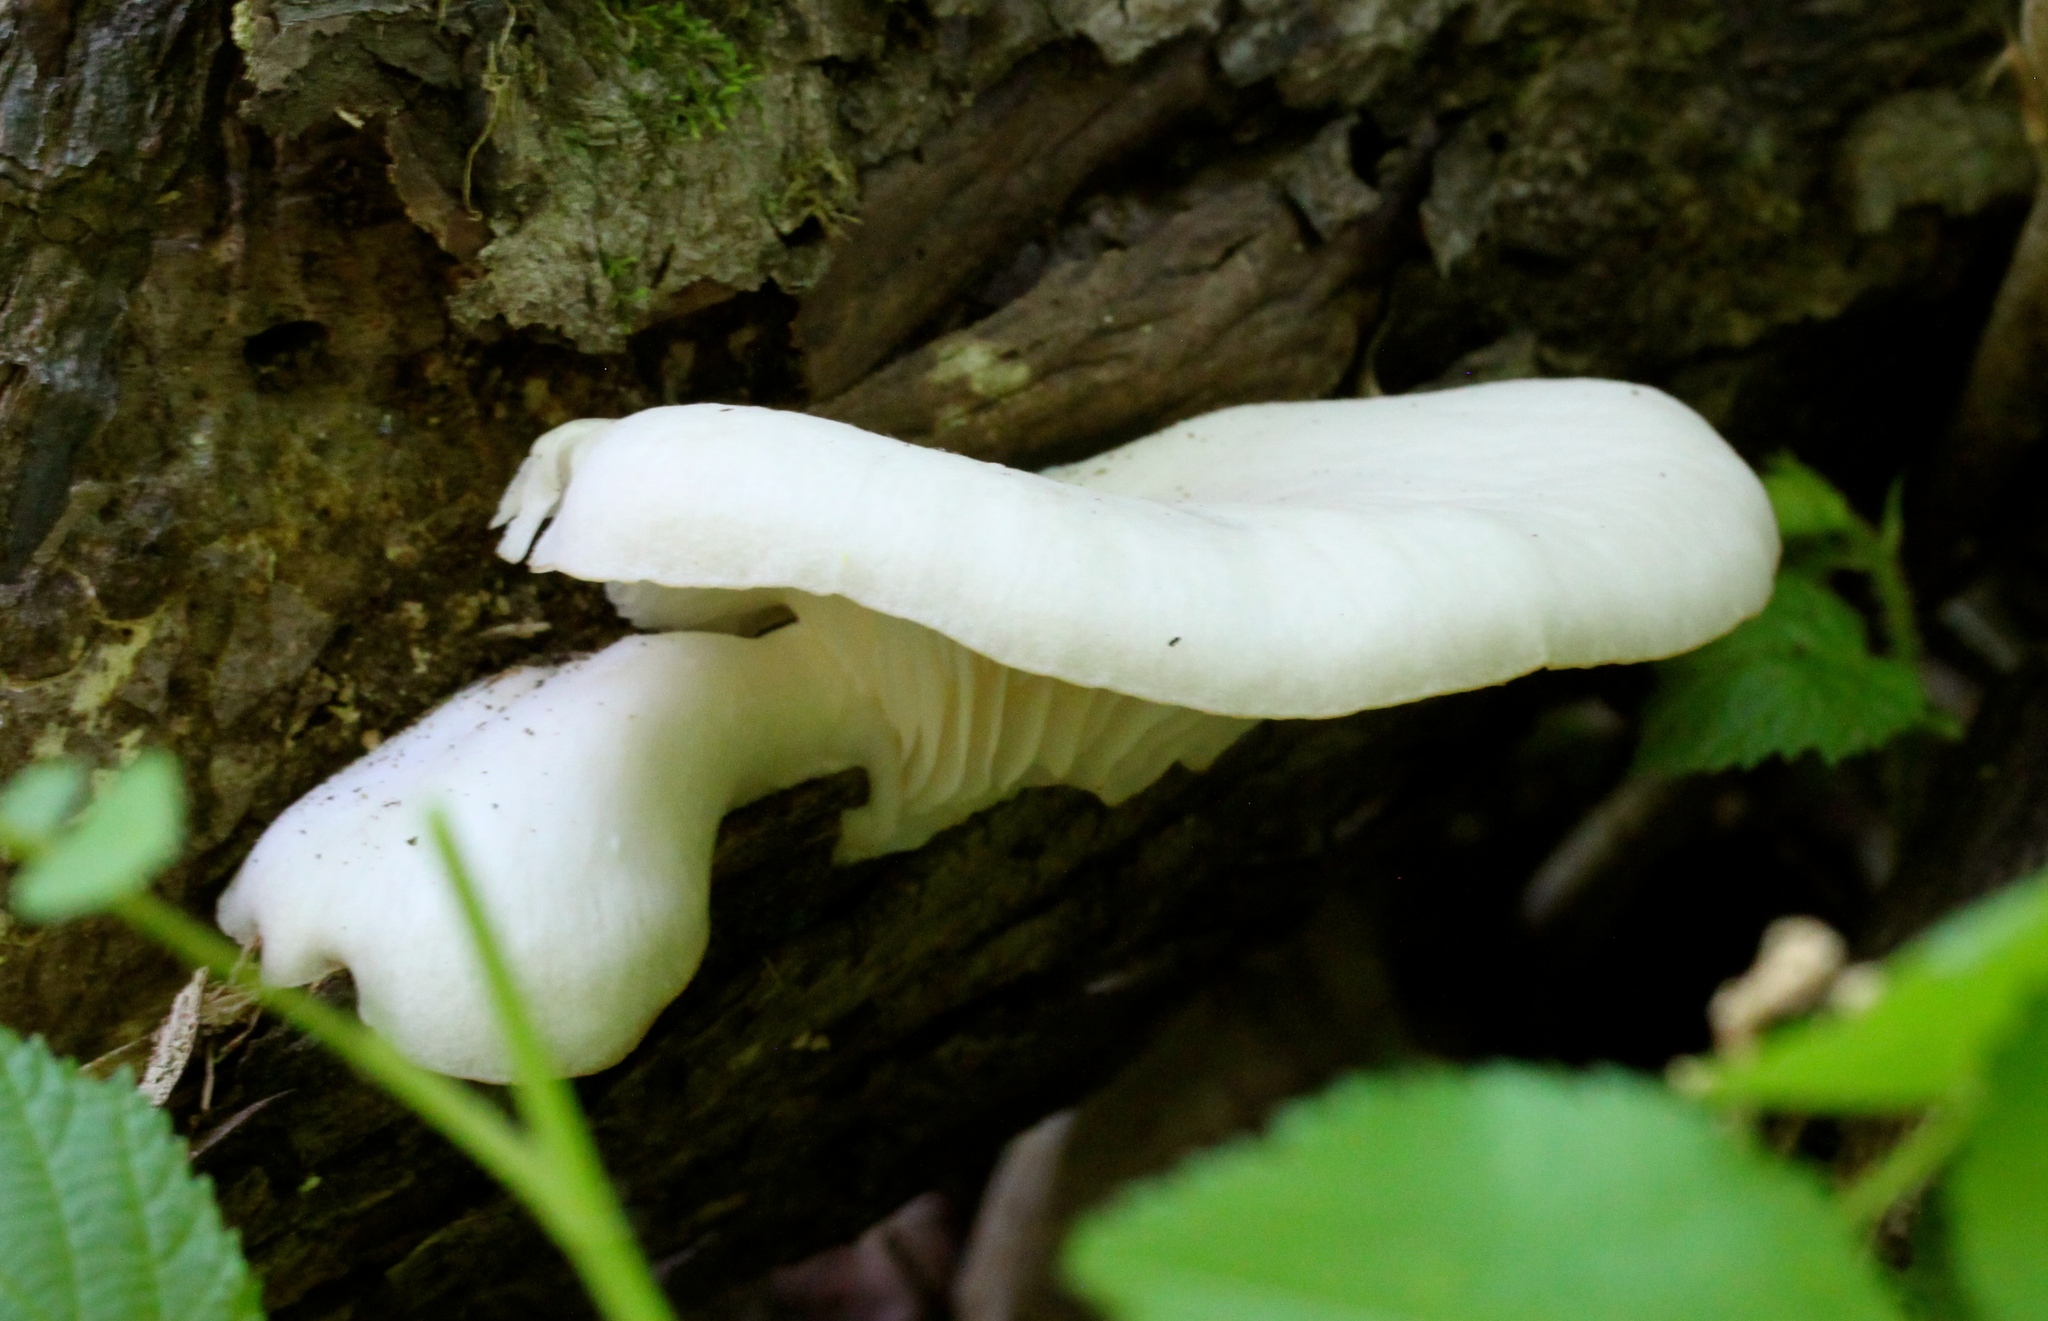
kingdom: Fungi
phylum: Basidiomycota
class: Agaricomycetes
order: Agaricales
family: Pleurotaceae
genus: Pleurotus
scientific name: Pleurotus ostreatus
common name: Oyster mushroom
